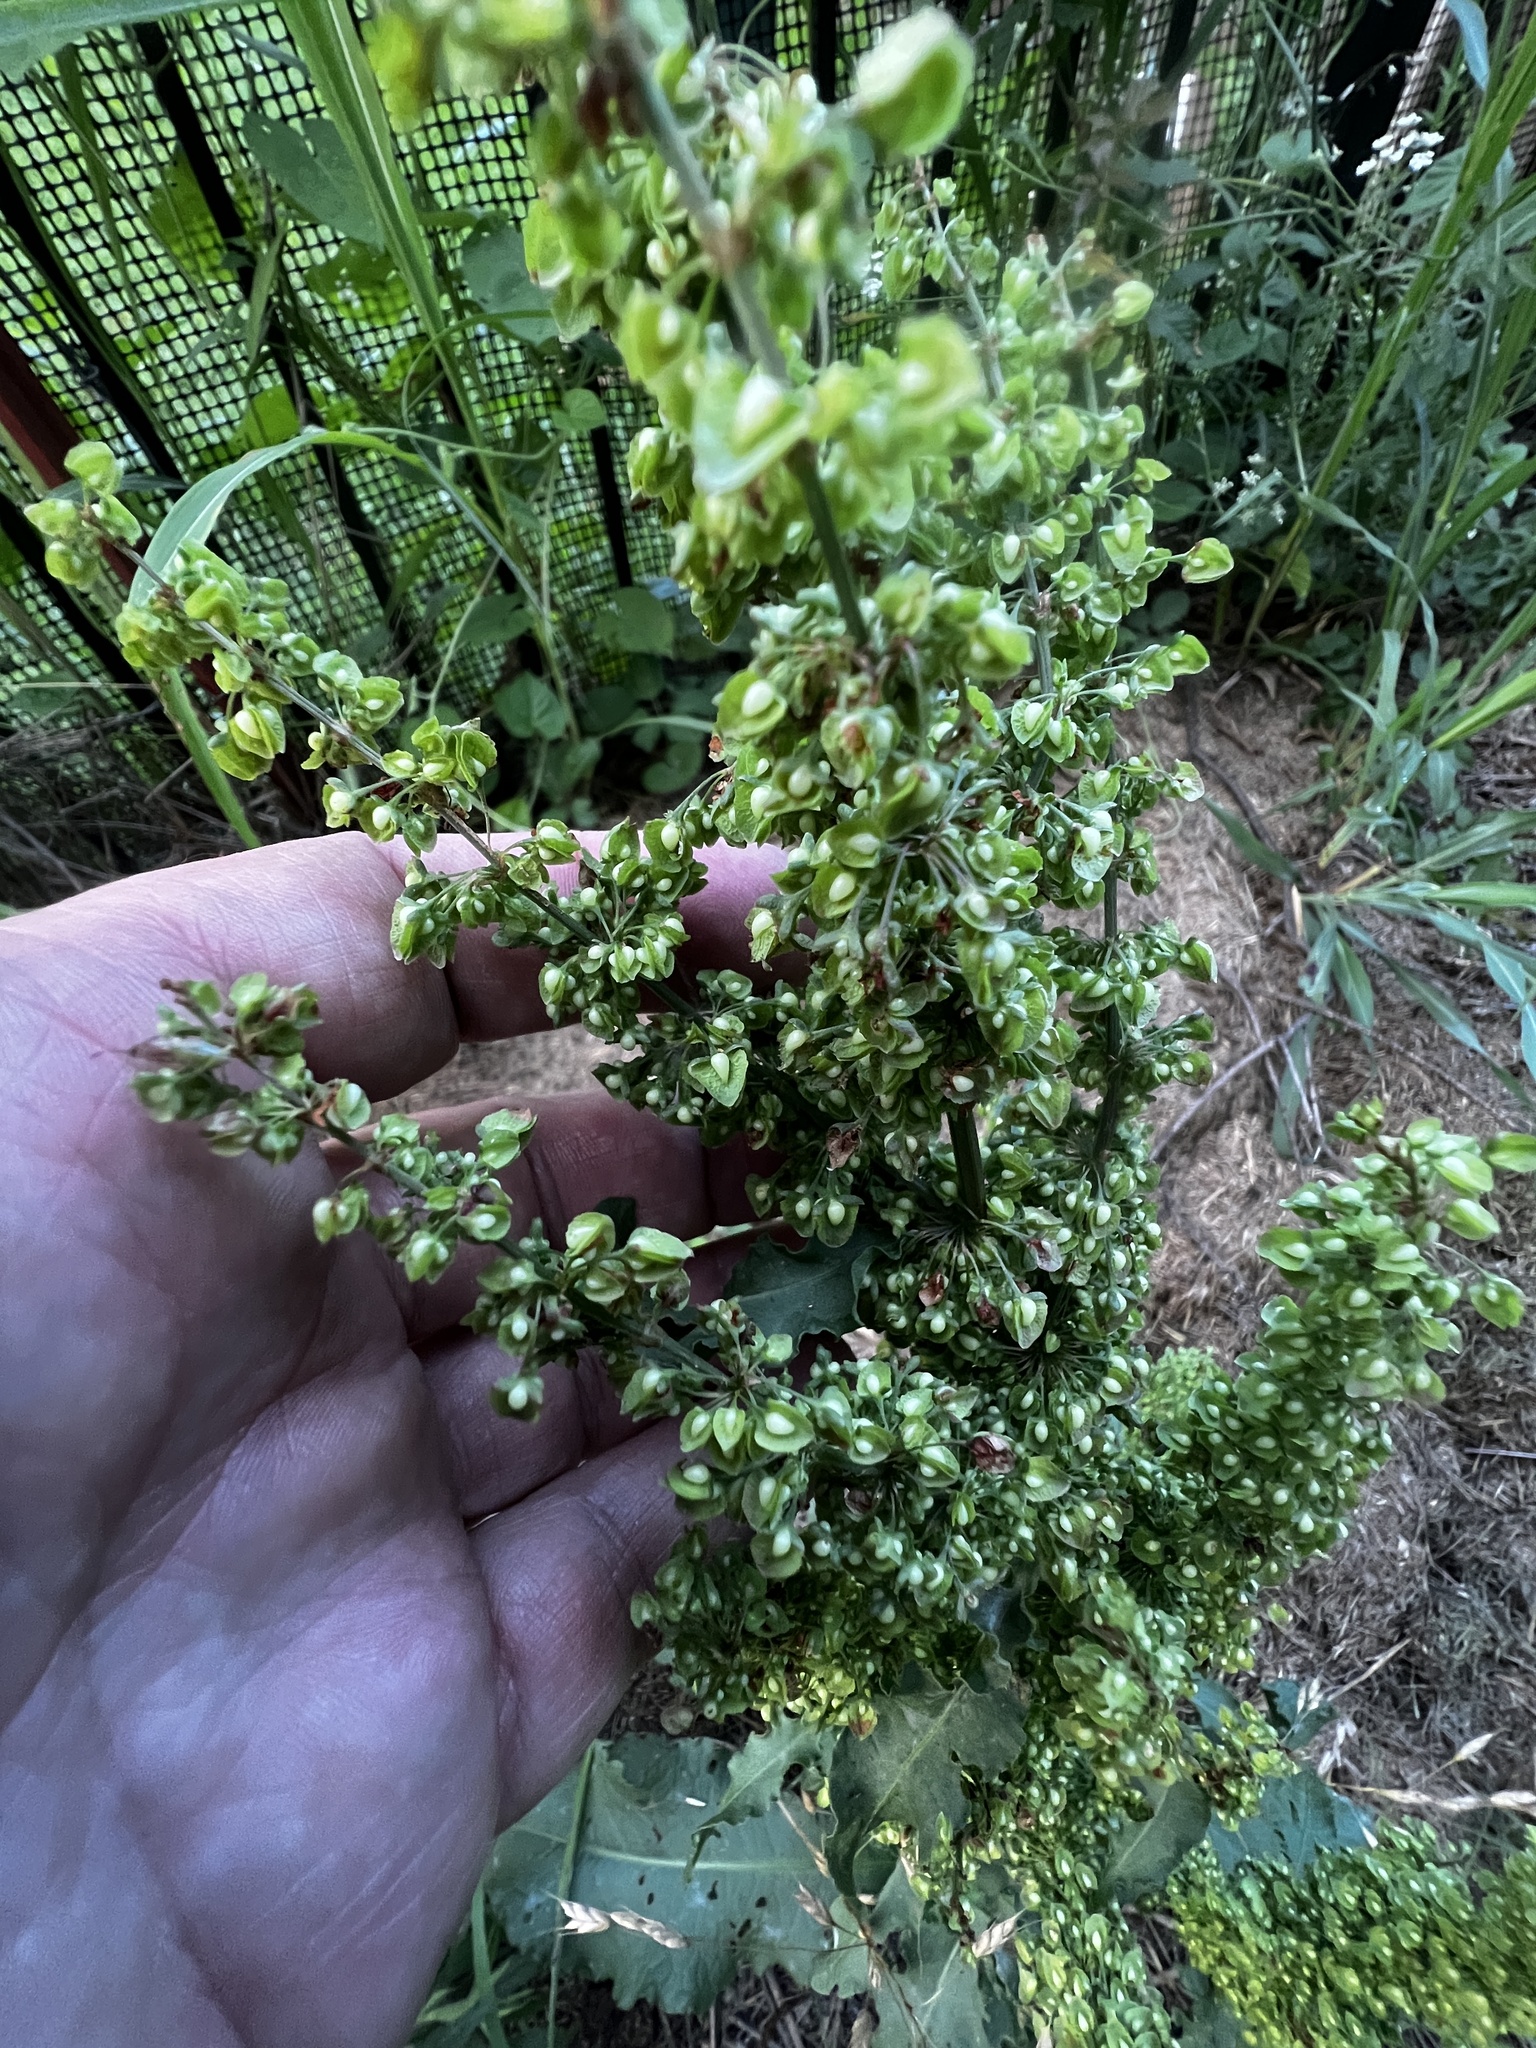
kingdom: Plantae
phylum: Tracheophyta
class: Magnoliopsida
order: Caryophyllales
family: Polygonaceae
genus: Rumex
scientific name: Rumex crispus
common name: Curled dock
